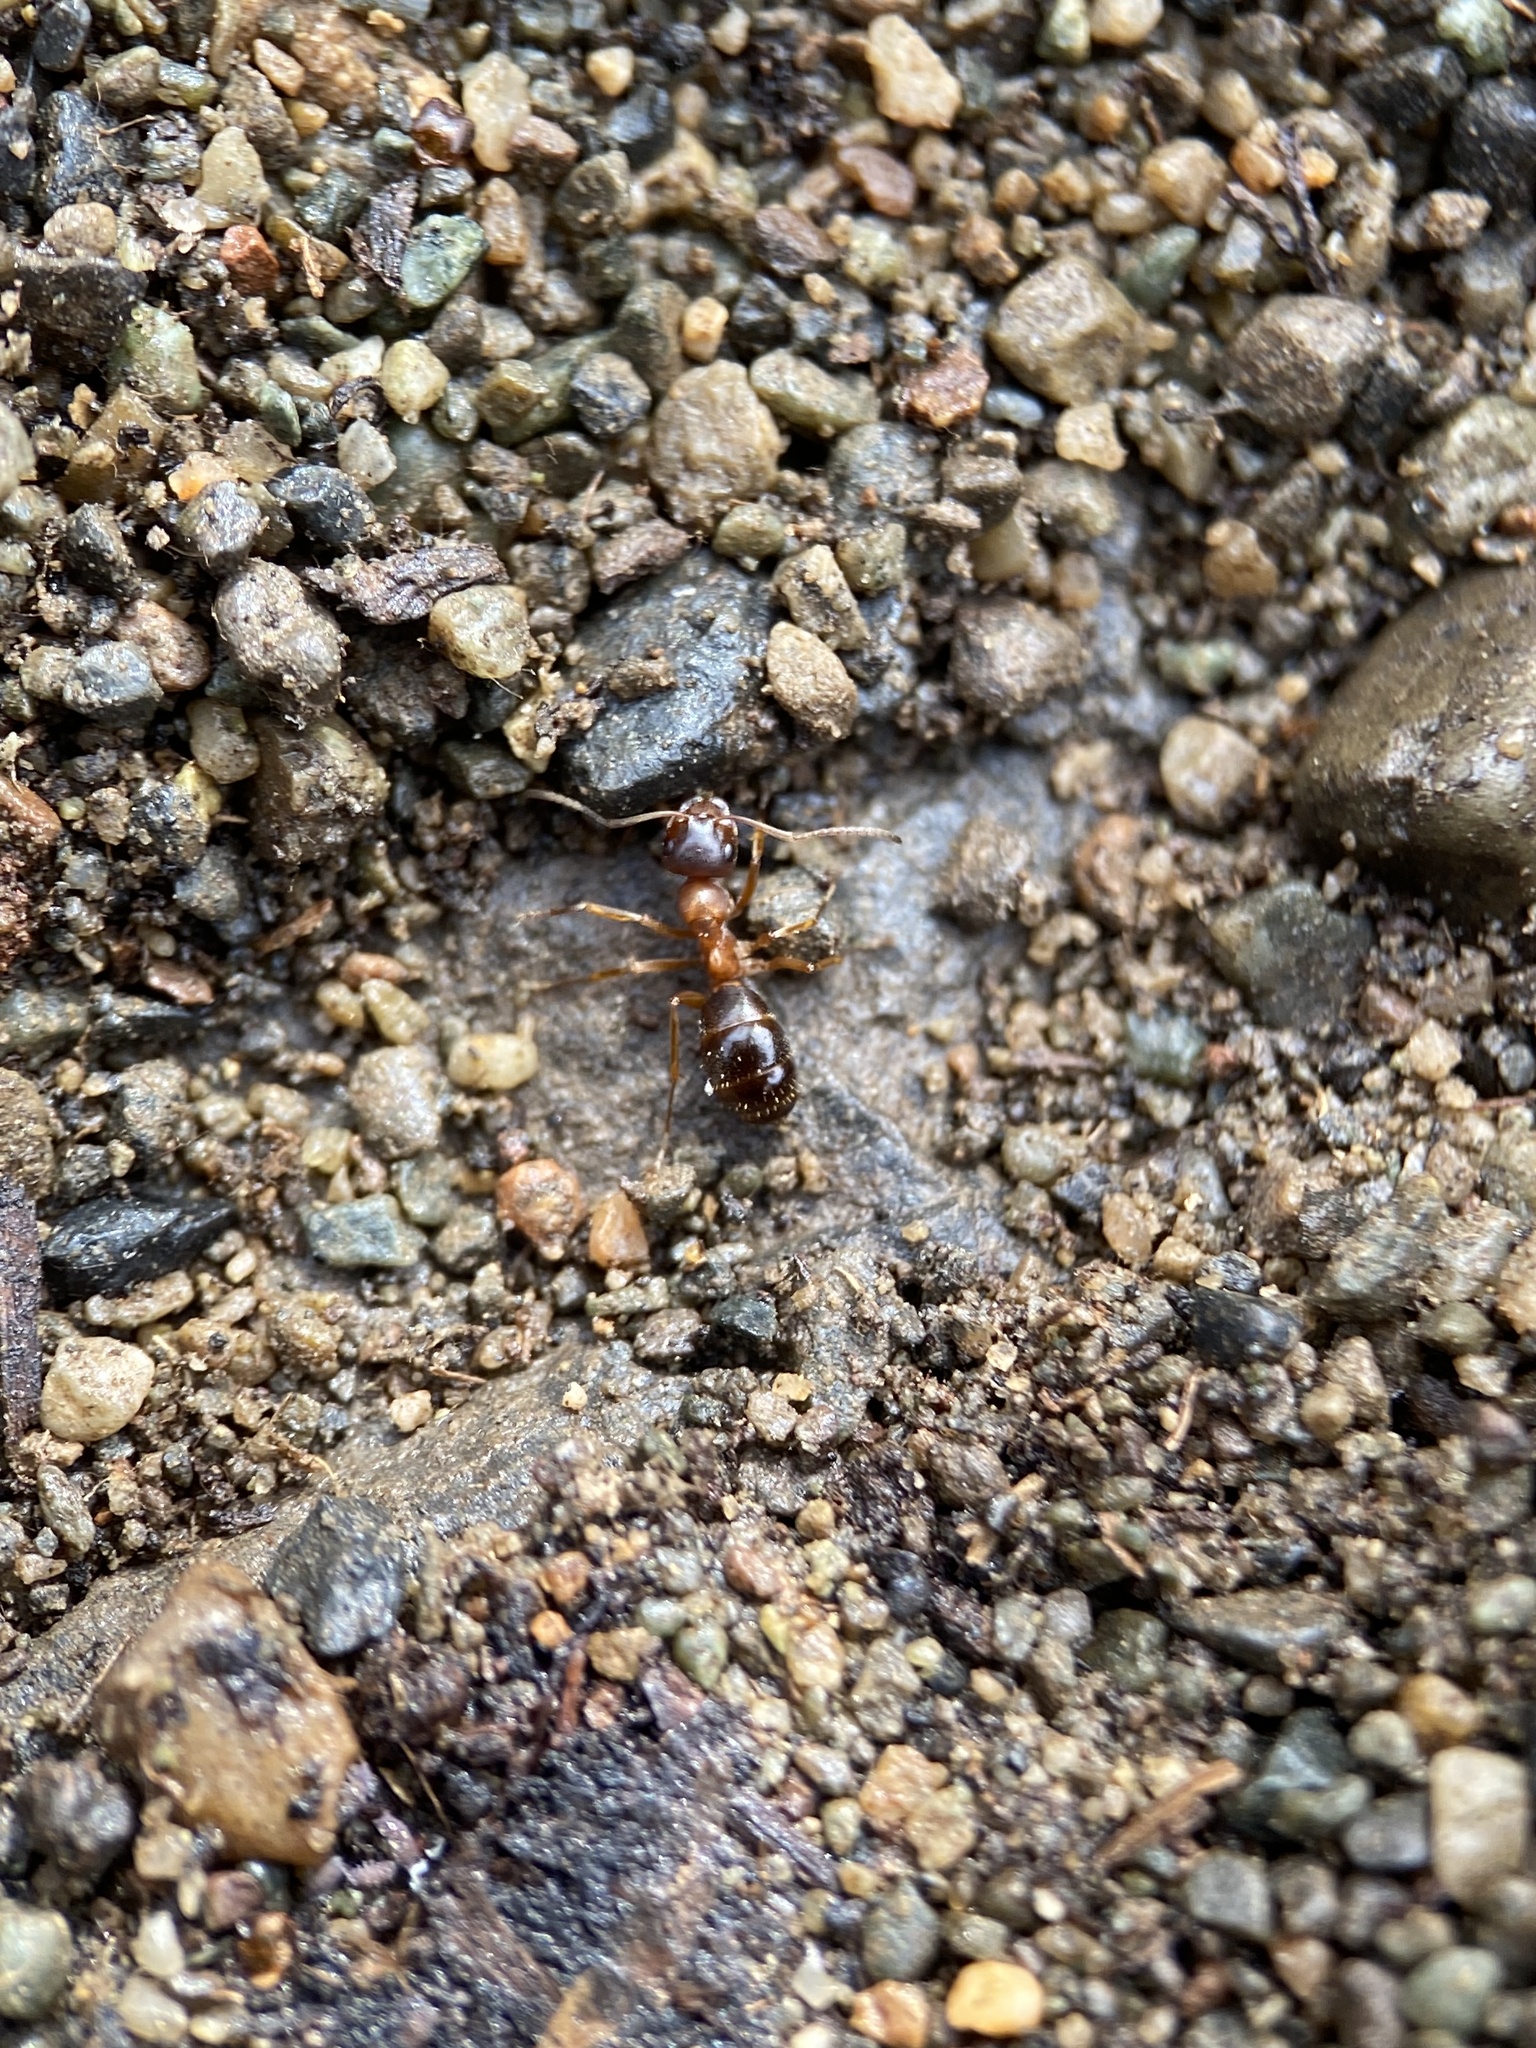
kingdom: Animalia
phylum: Arthropoda
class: Insecta
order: Hymenoptera
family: Formicidae
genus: Formica
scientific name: Formica subpolita
